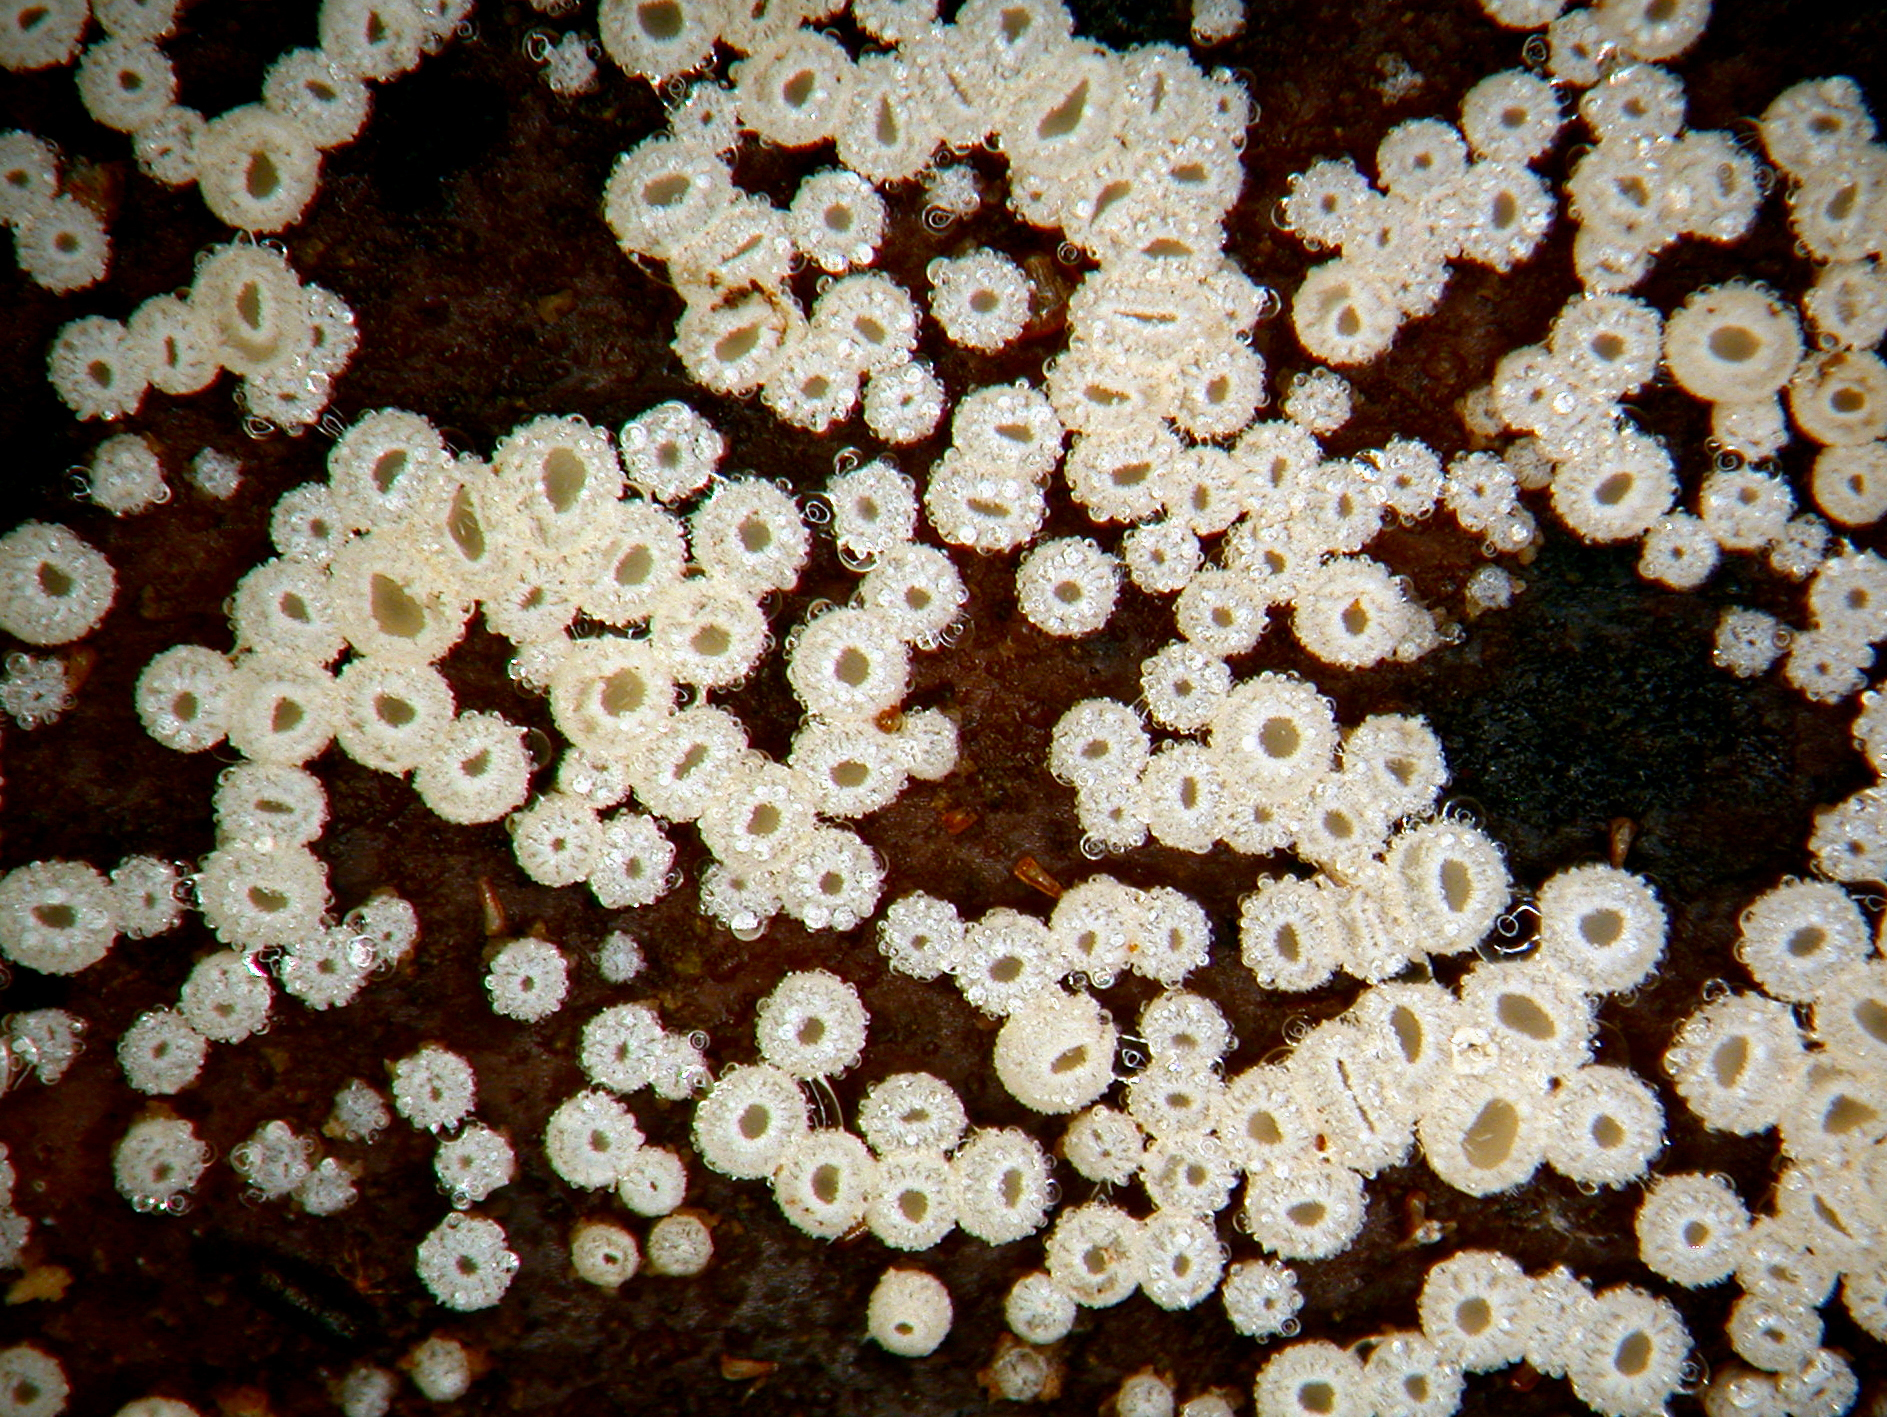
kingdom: Fungi
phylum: Ascomycota
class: Leotiomycetes
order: Helotiales
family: Lachnaceae
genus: Lachnellula
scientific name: Lachnellula rhopalostylidis
